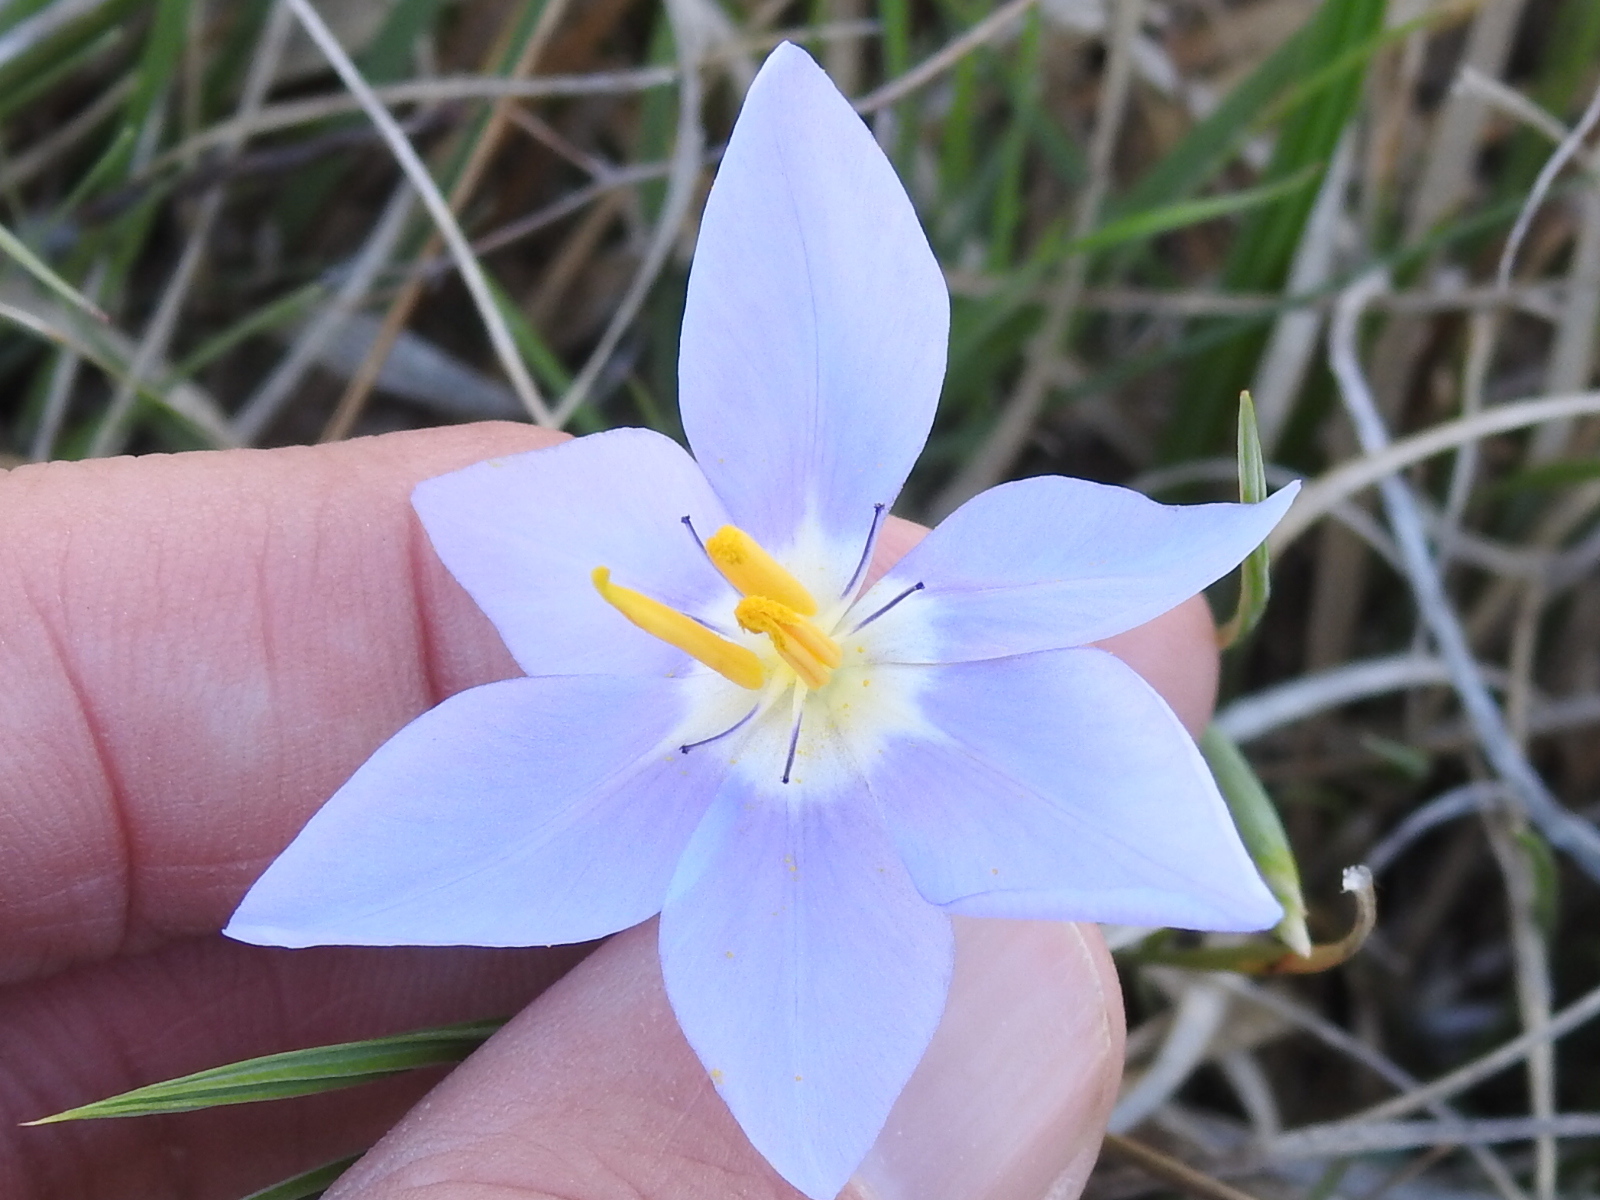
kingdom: Plantae
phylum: Tracheophyta
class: Liliopsida
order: Asparagales
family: Iridaceae
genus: Nemastylis
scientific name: Nemastylis geminiflora
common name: Prairie celestial
